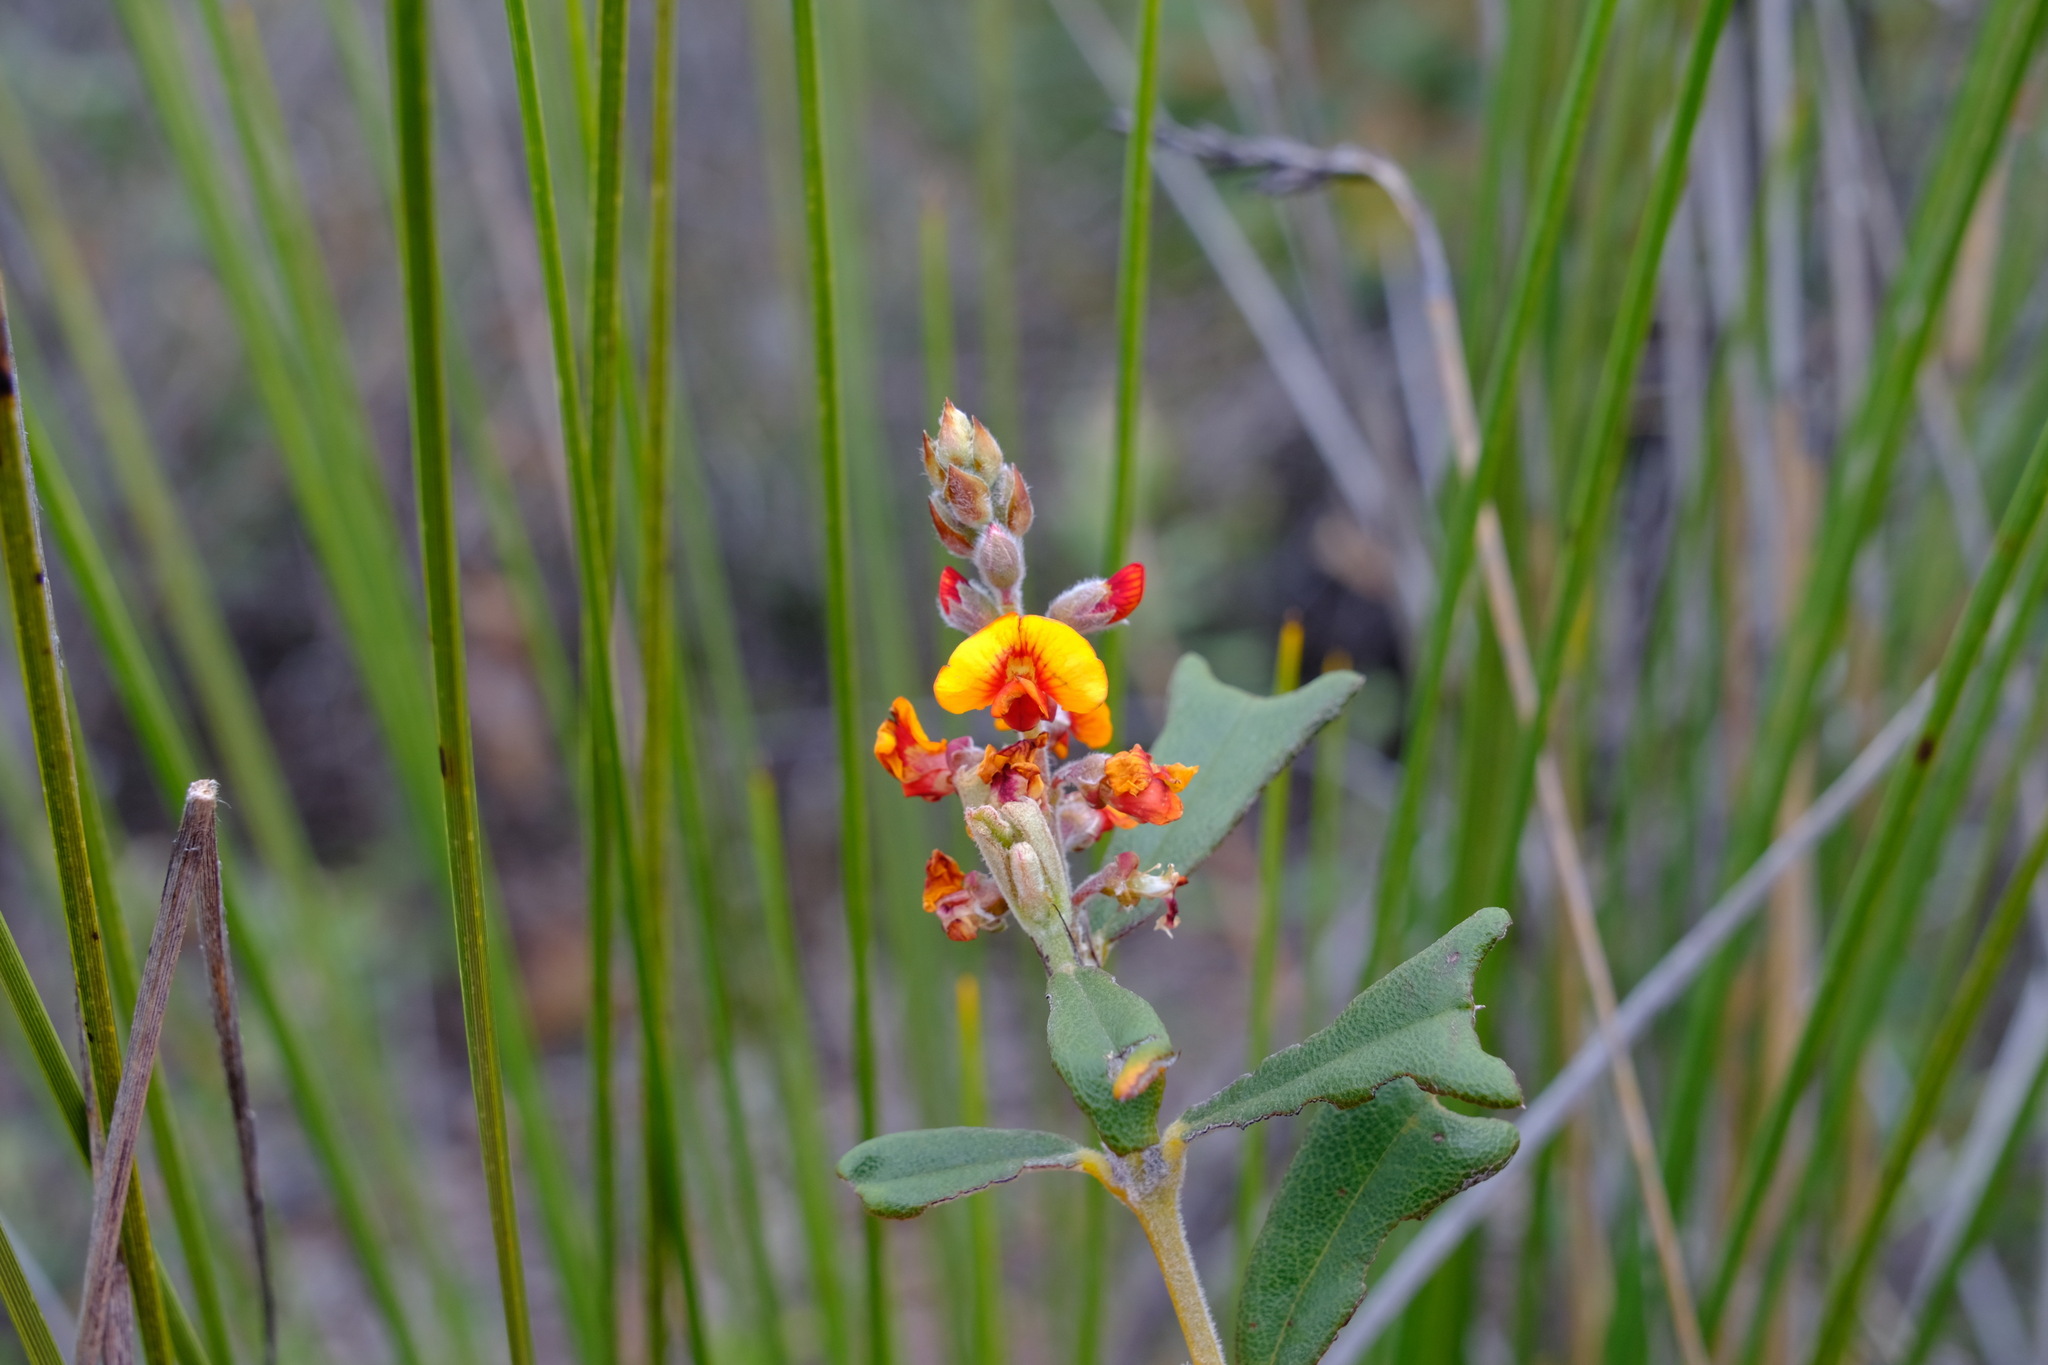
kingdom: Plantae
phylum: Tracheophyta
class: Magnoliopsida
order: Fabales
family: Fabaceae
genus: Gastrolobium
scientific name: Gastrolobium polystachyum
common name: Hill river poison
